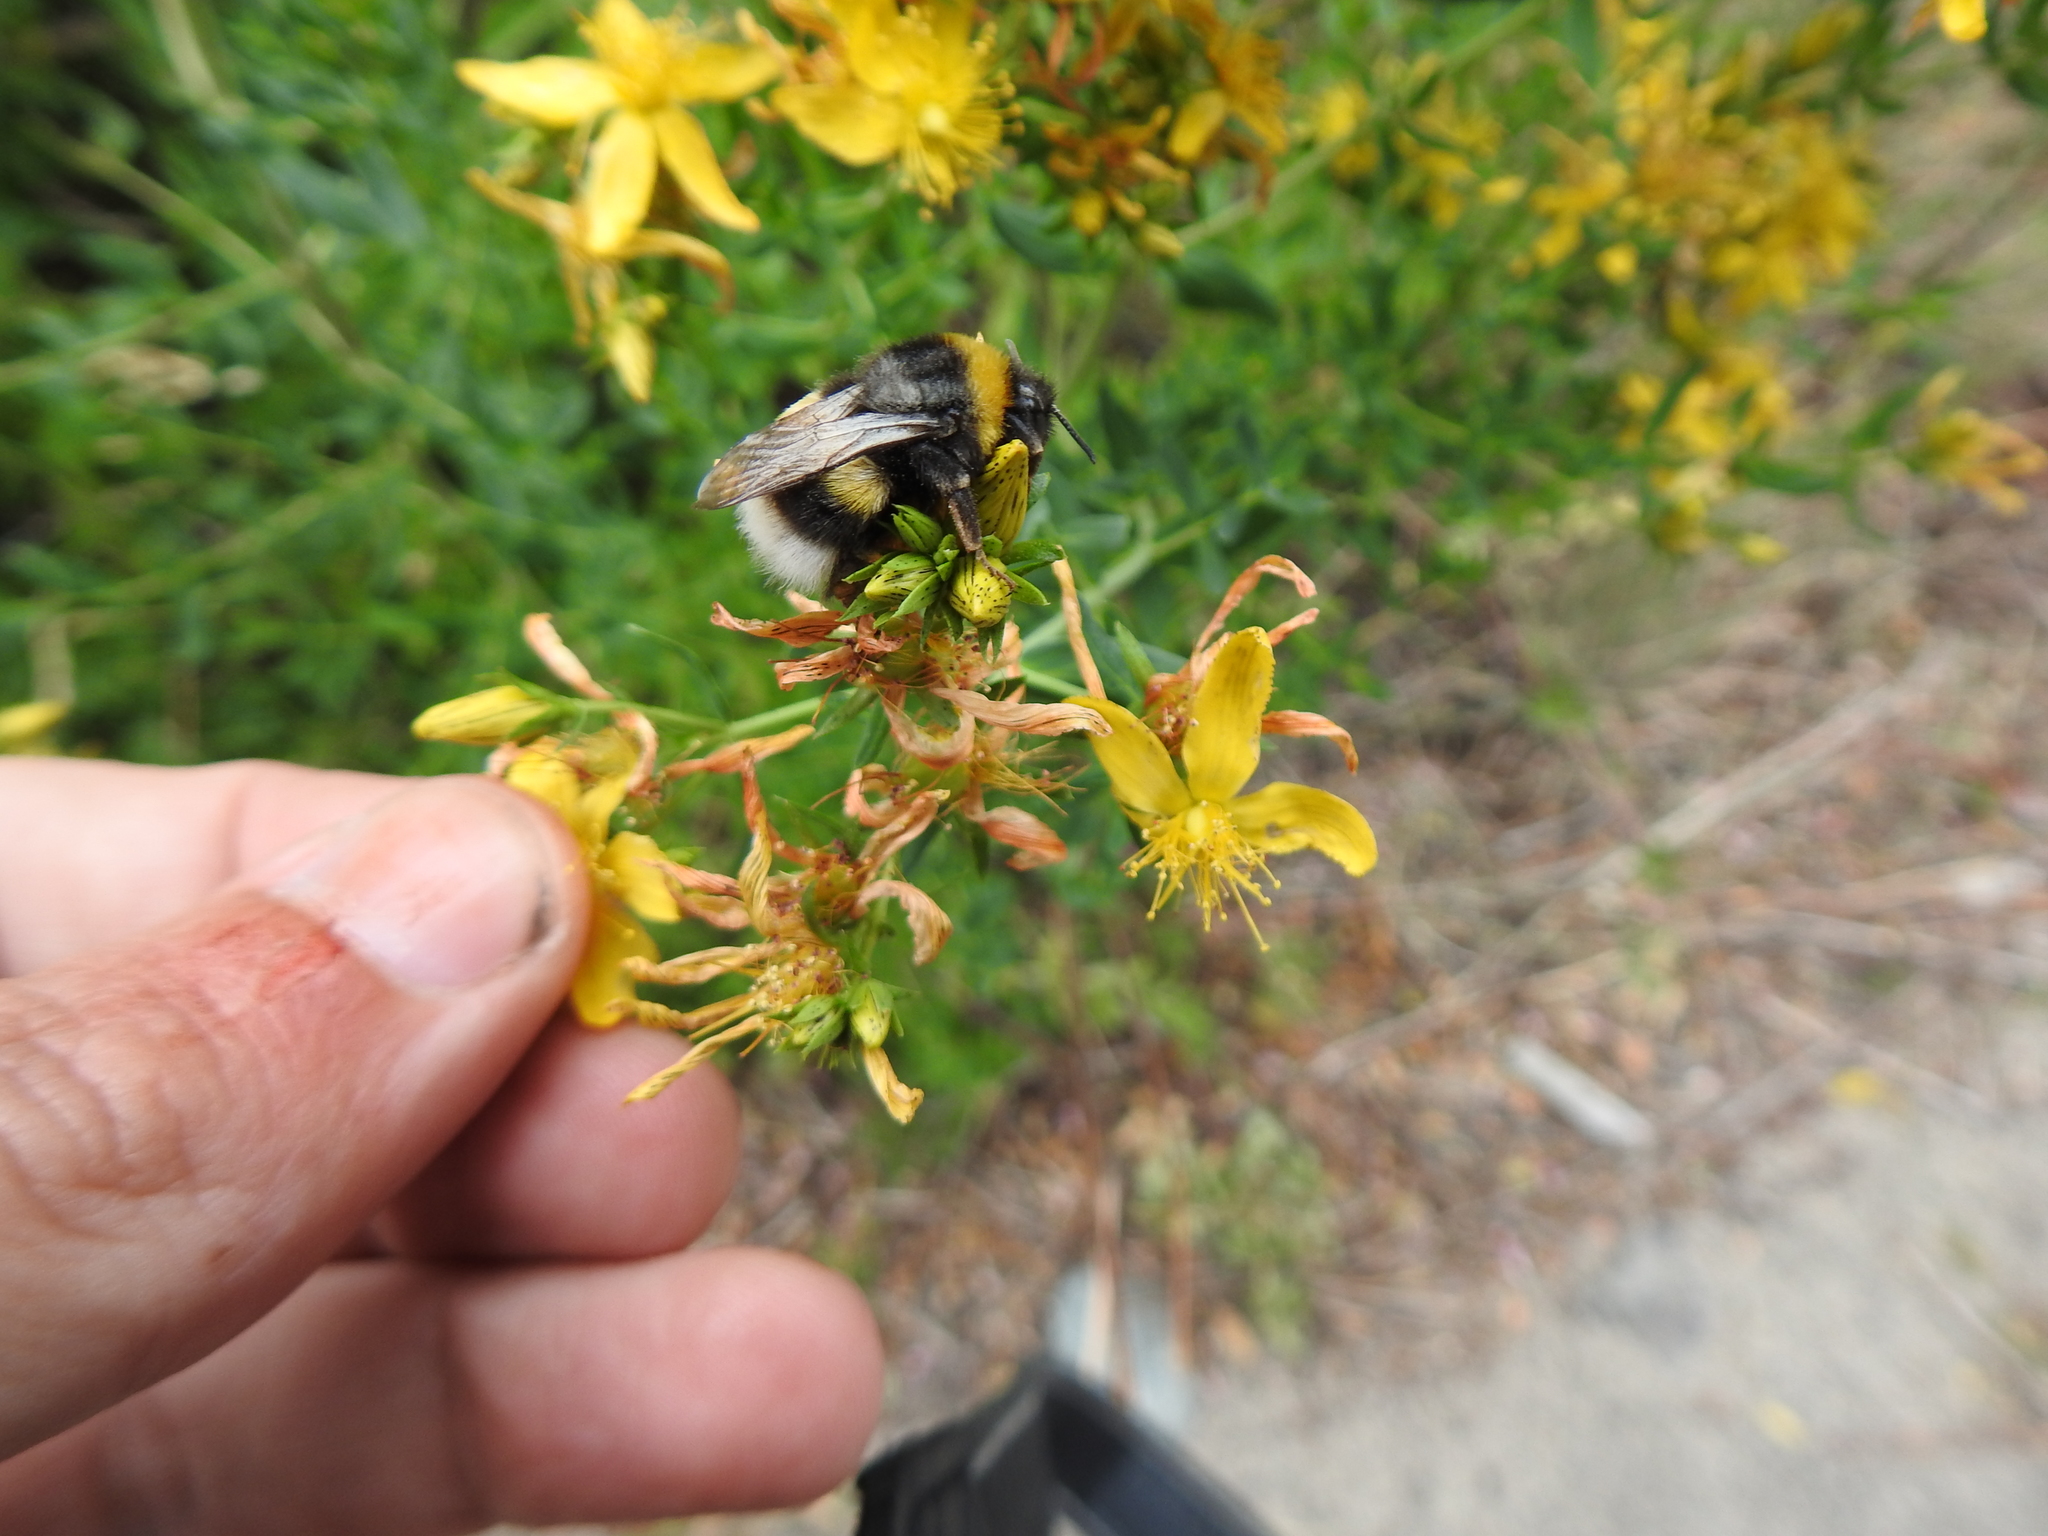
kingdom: Animalia
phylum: Arthropoda
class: Insecta
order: Hymenoptera
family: Apidae
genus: Bombus
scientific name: Bombus terrestris
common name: Buff-tailed bumblebee
